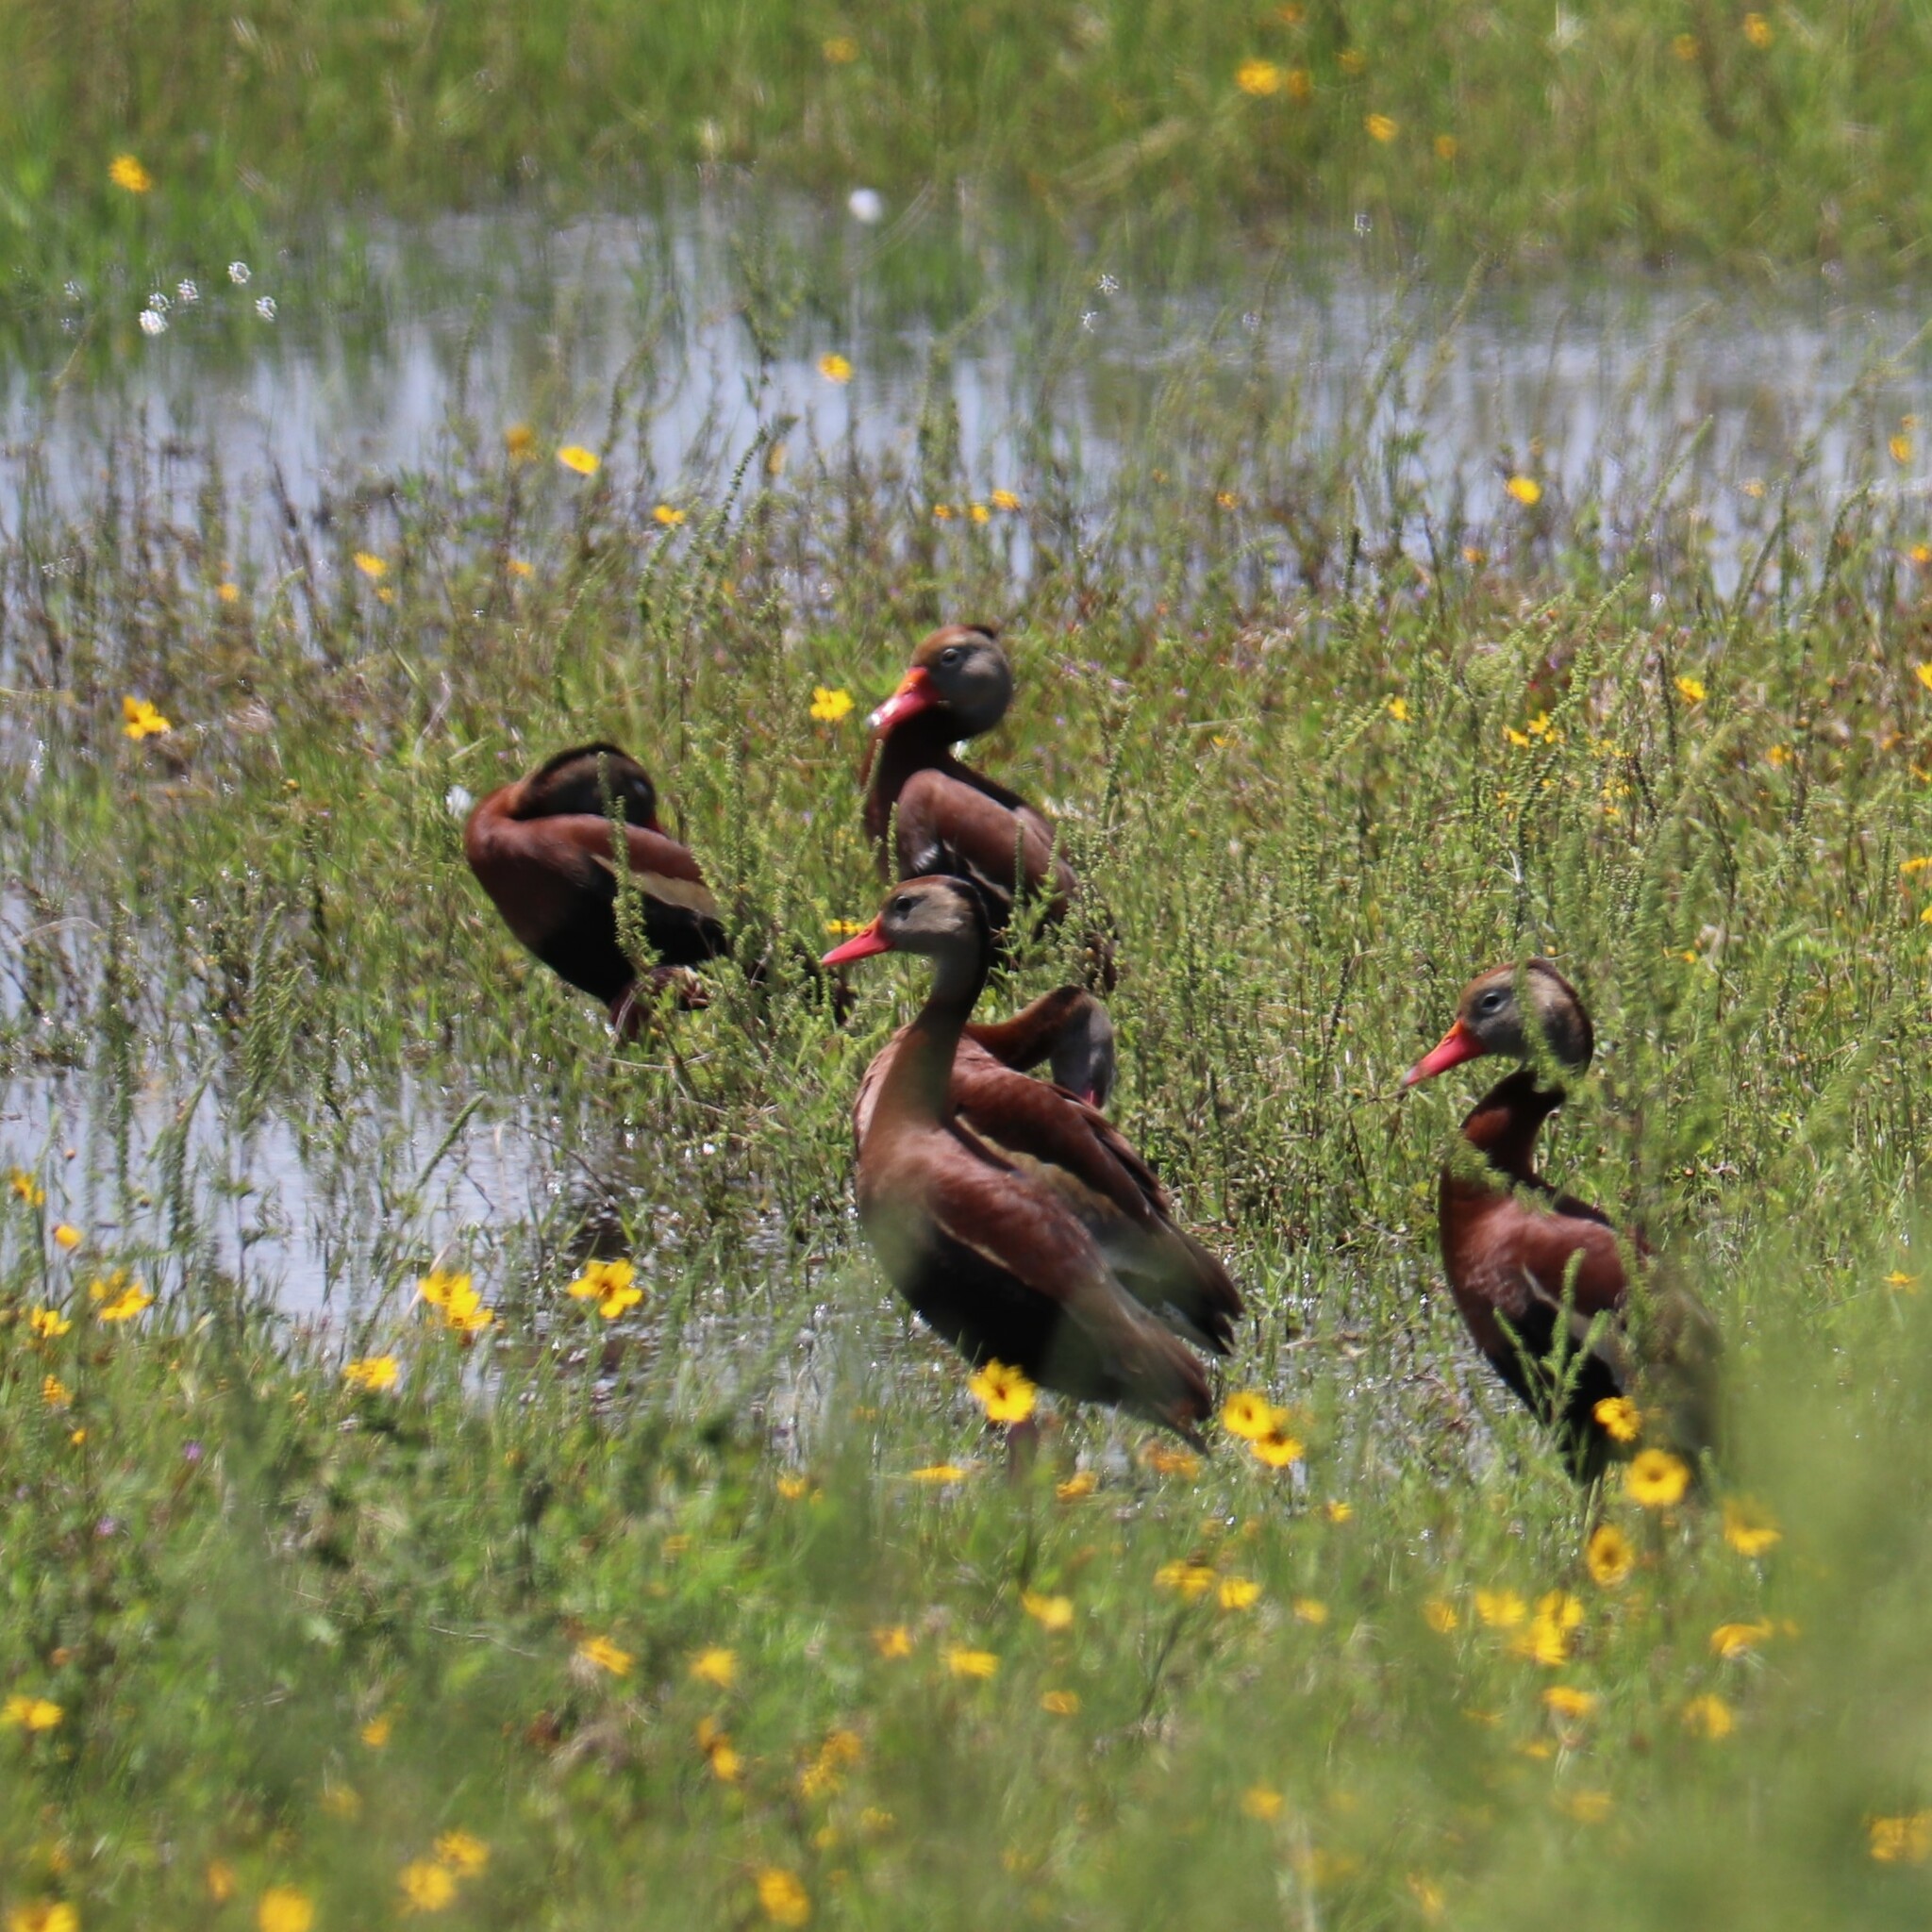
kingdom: Animalia
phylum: Chordata
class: Aves
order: Anseriformes
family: Anatidae
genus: Dendrocygna
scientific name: Dendrocygna autumnalis
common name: Black-bellied whistling duck
